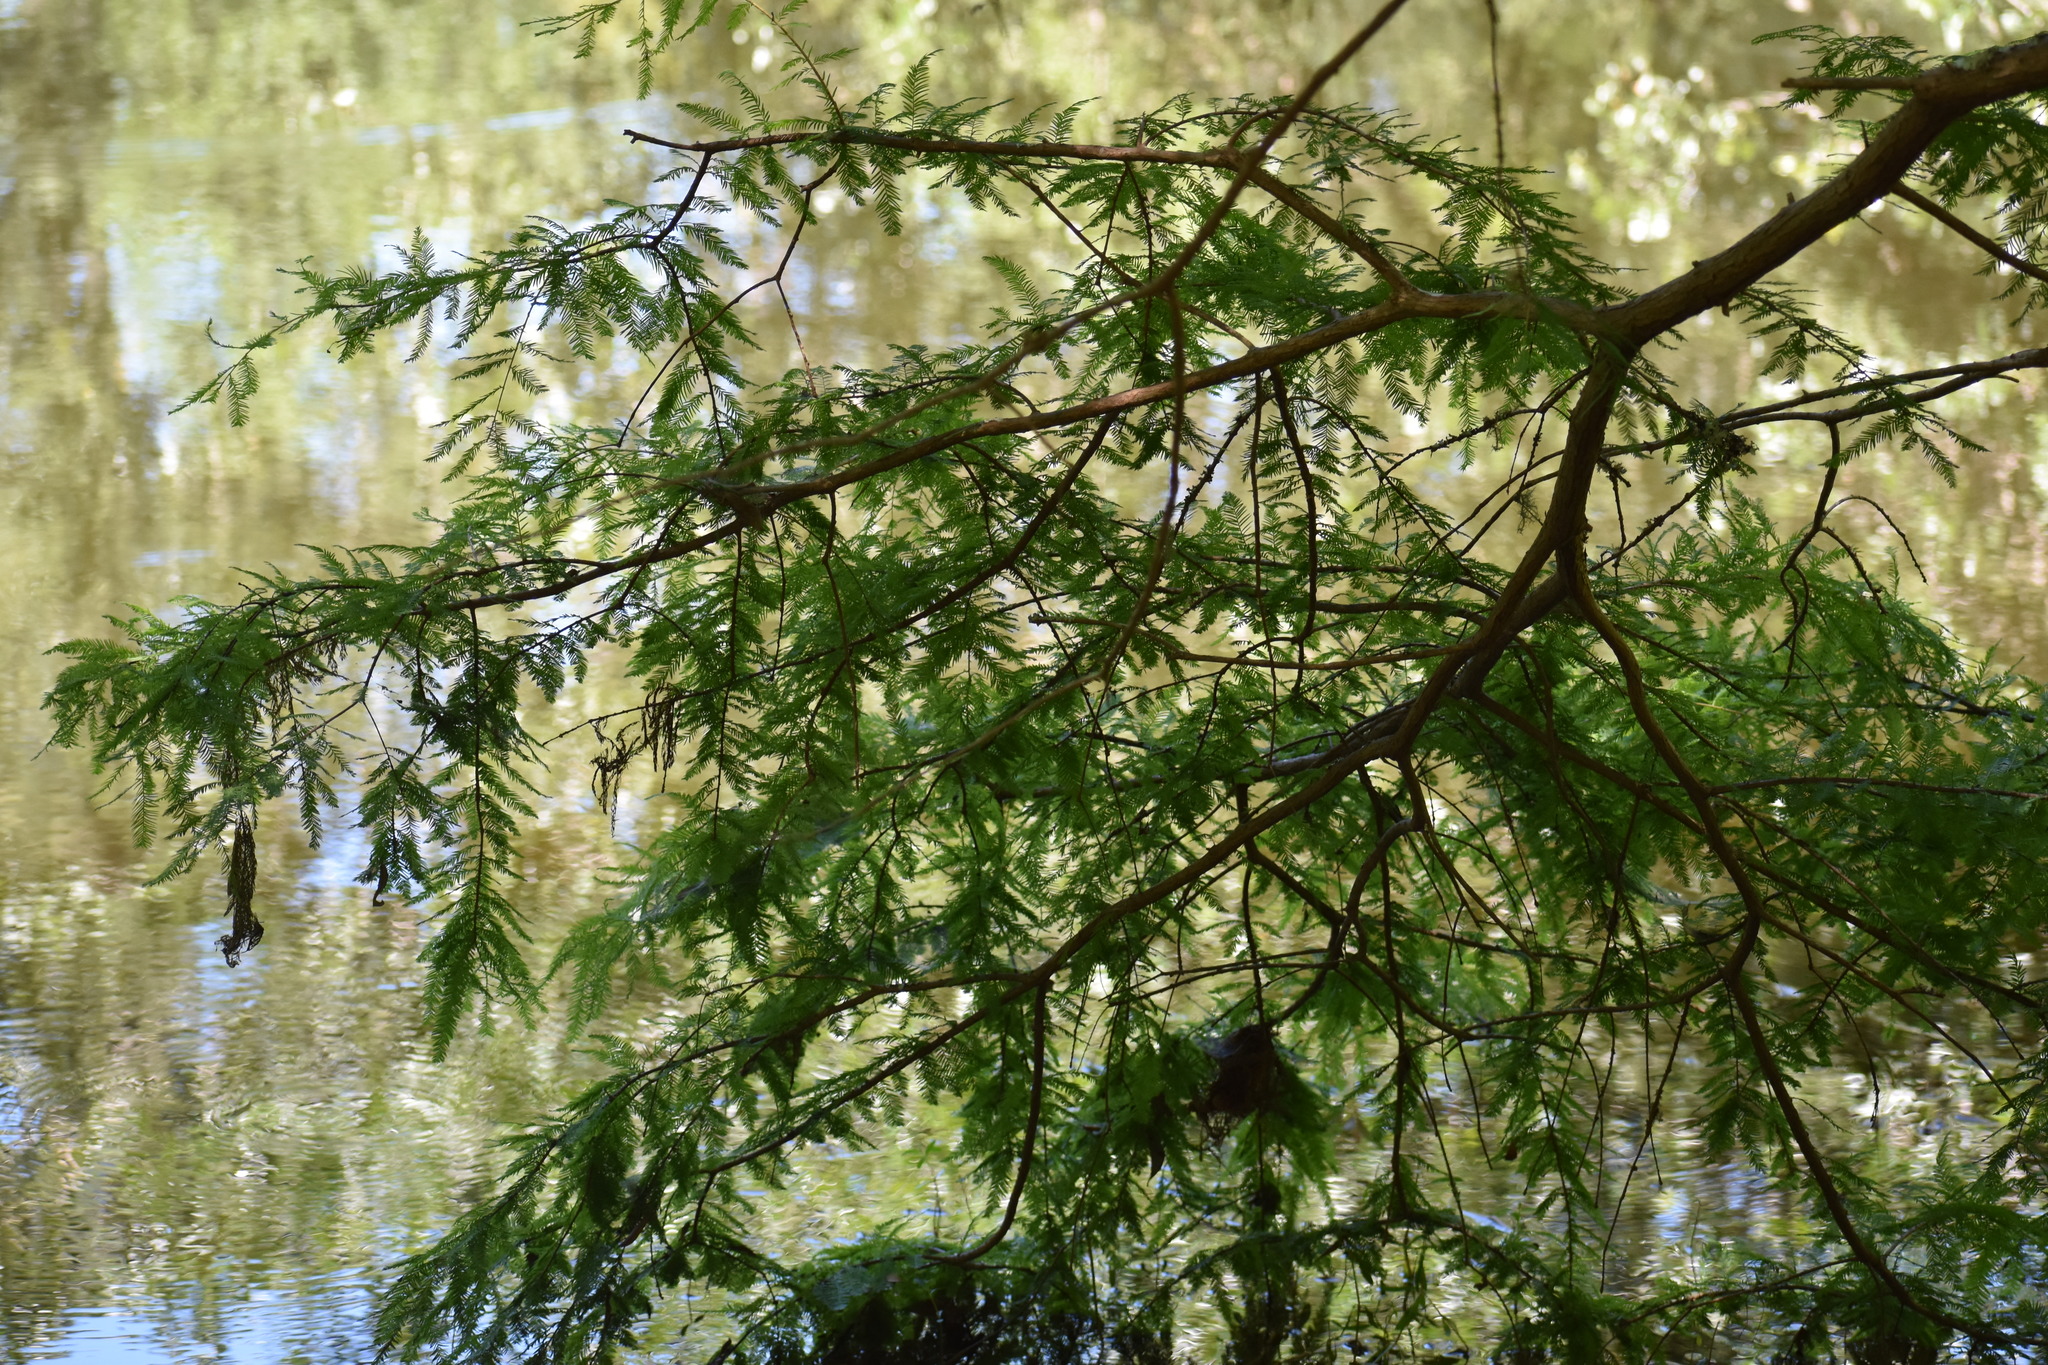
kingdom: Plantae
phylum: Tracheophyta
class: Pinopsida
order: Pinales
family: Cupressaceae
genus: Taxodium
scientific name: Taxodium distichum
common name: Bald cypress
